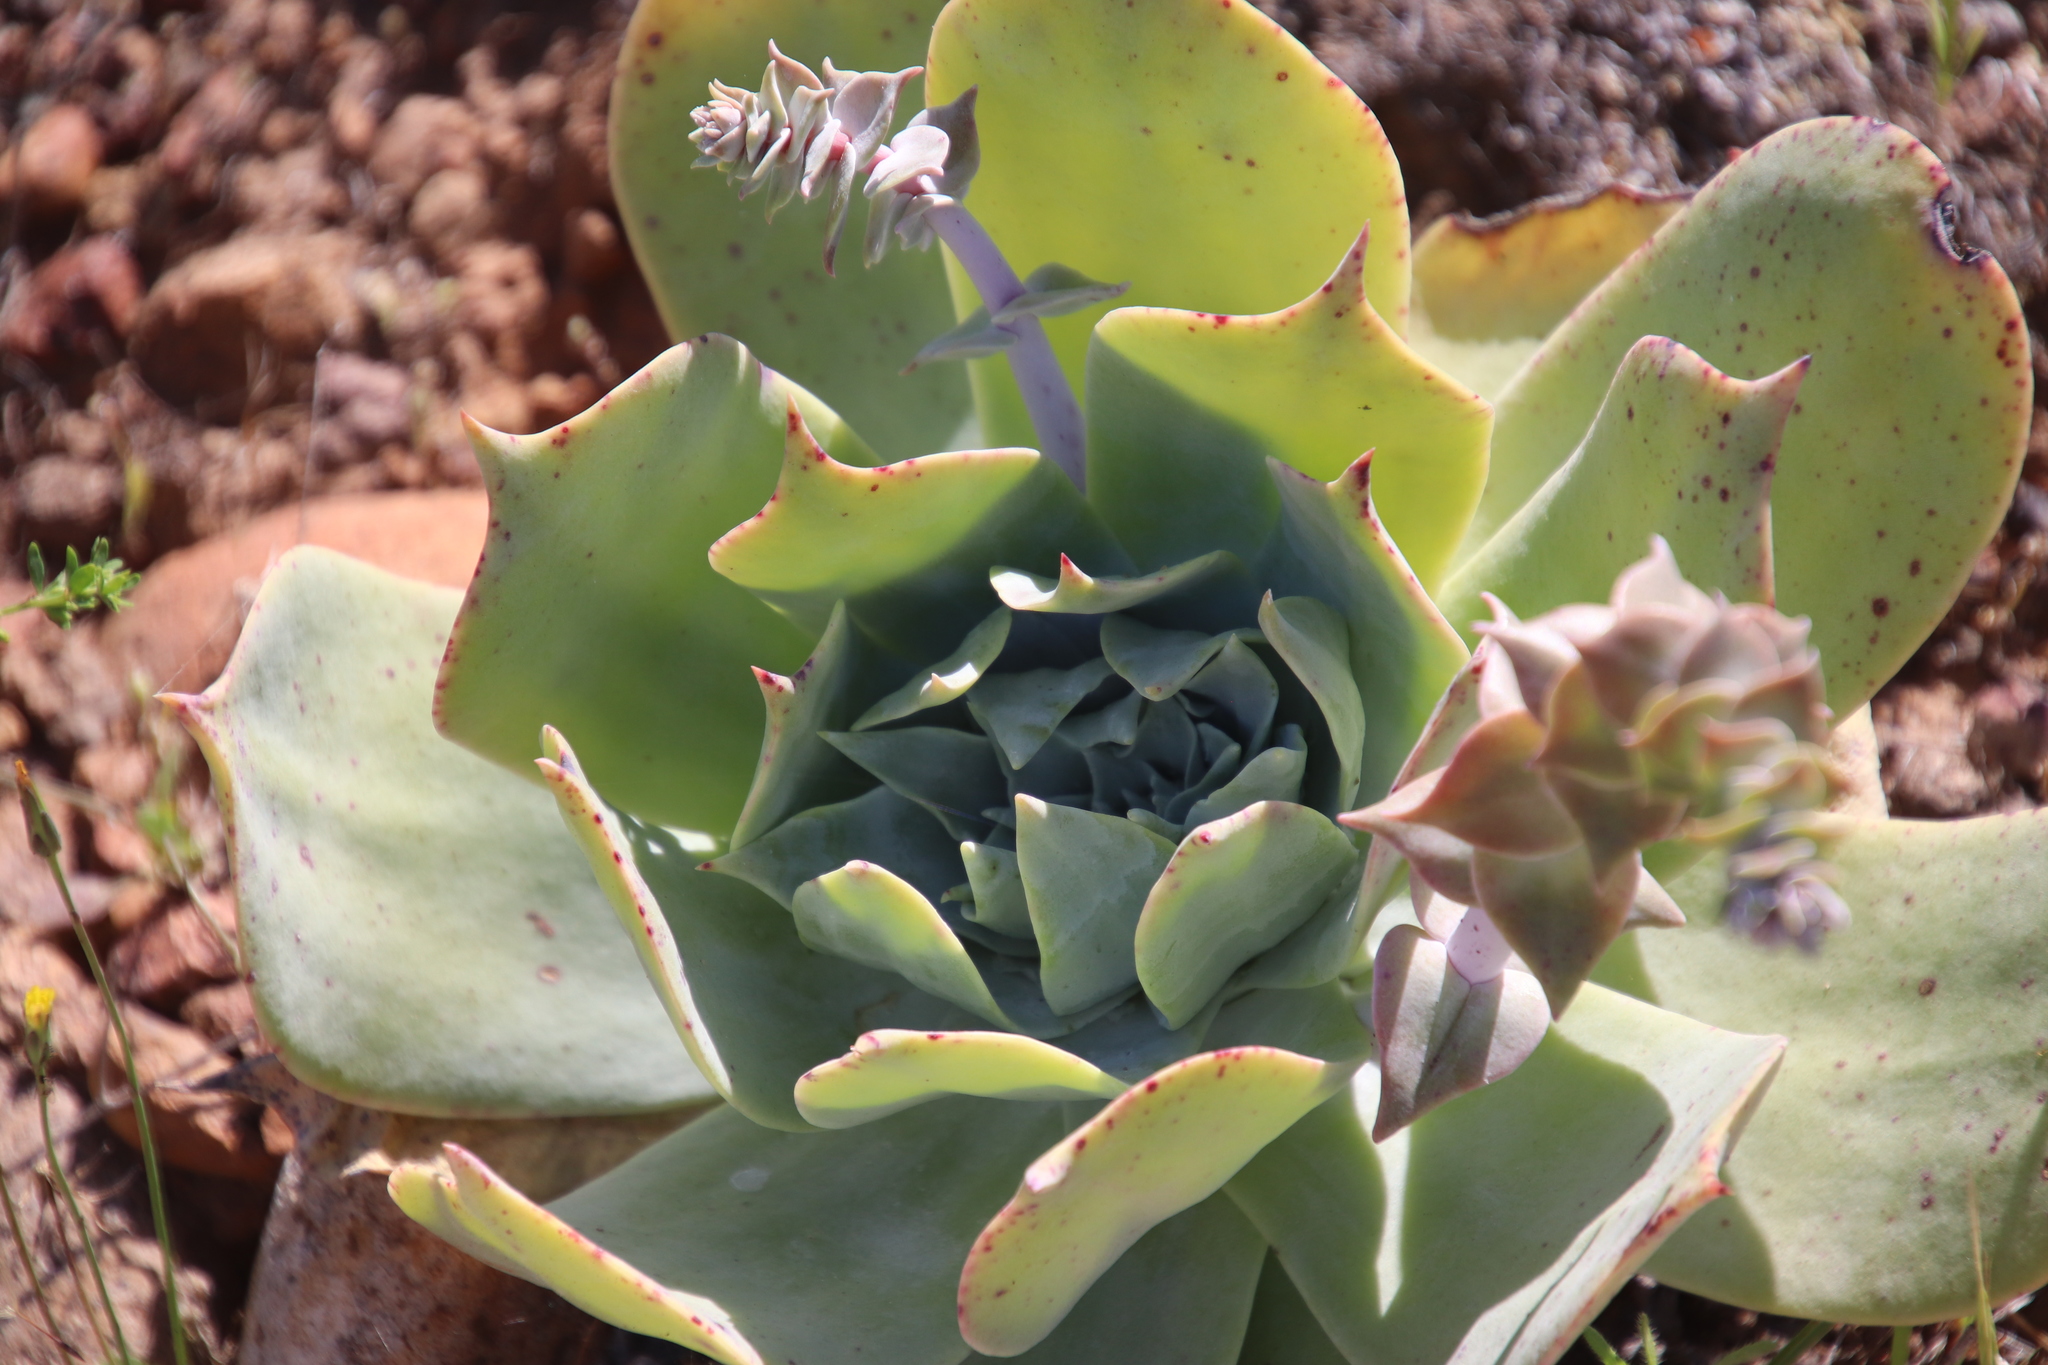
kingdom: Plantae
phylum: Tracheophyta
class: Magnoliopsida
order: Saxifragales
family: Crassulaceae
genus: Dudleya
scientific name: Dudleya pulverulenta
